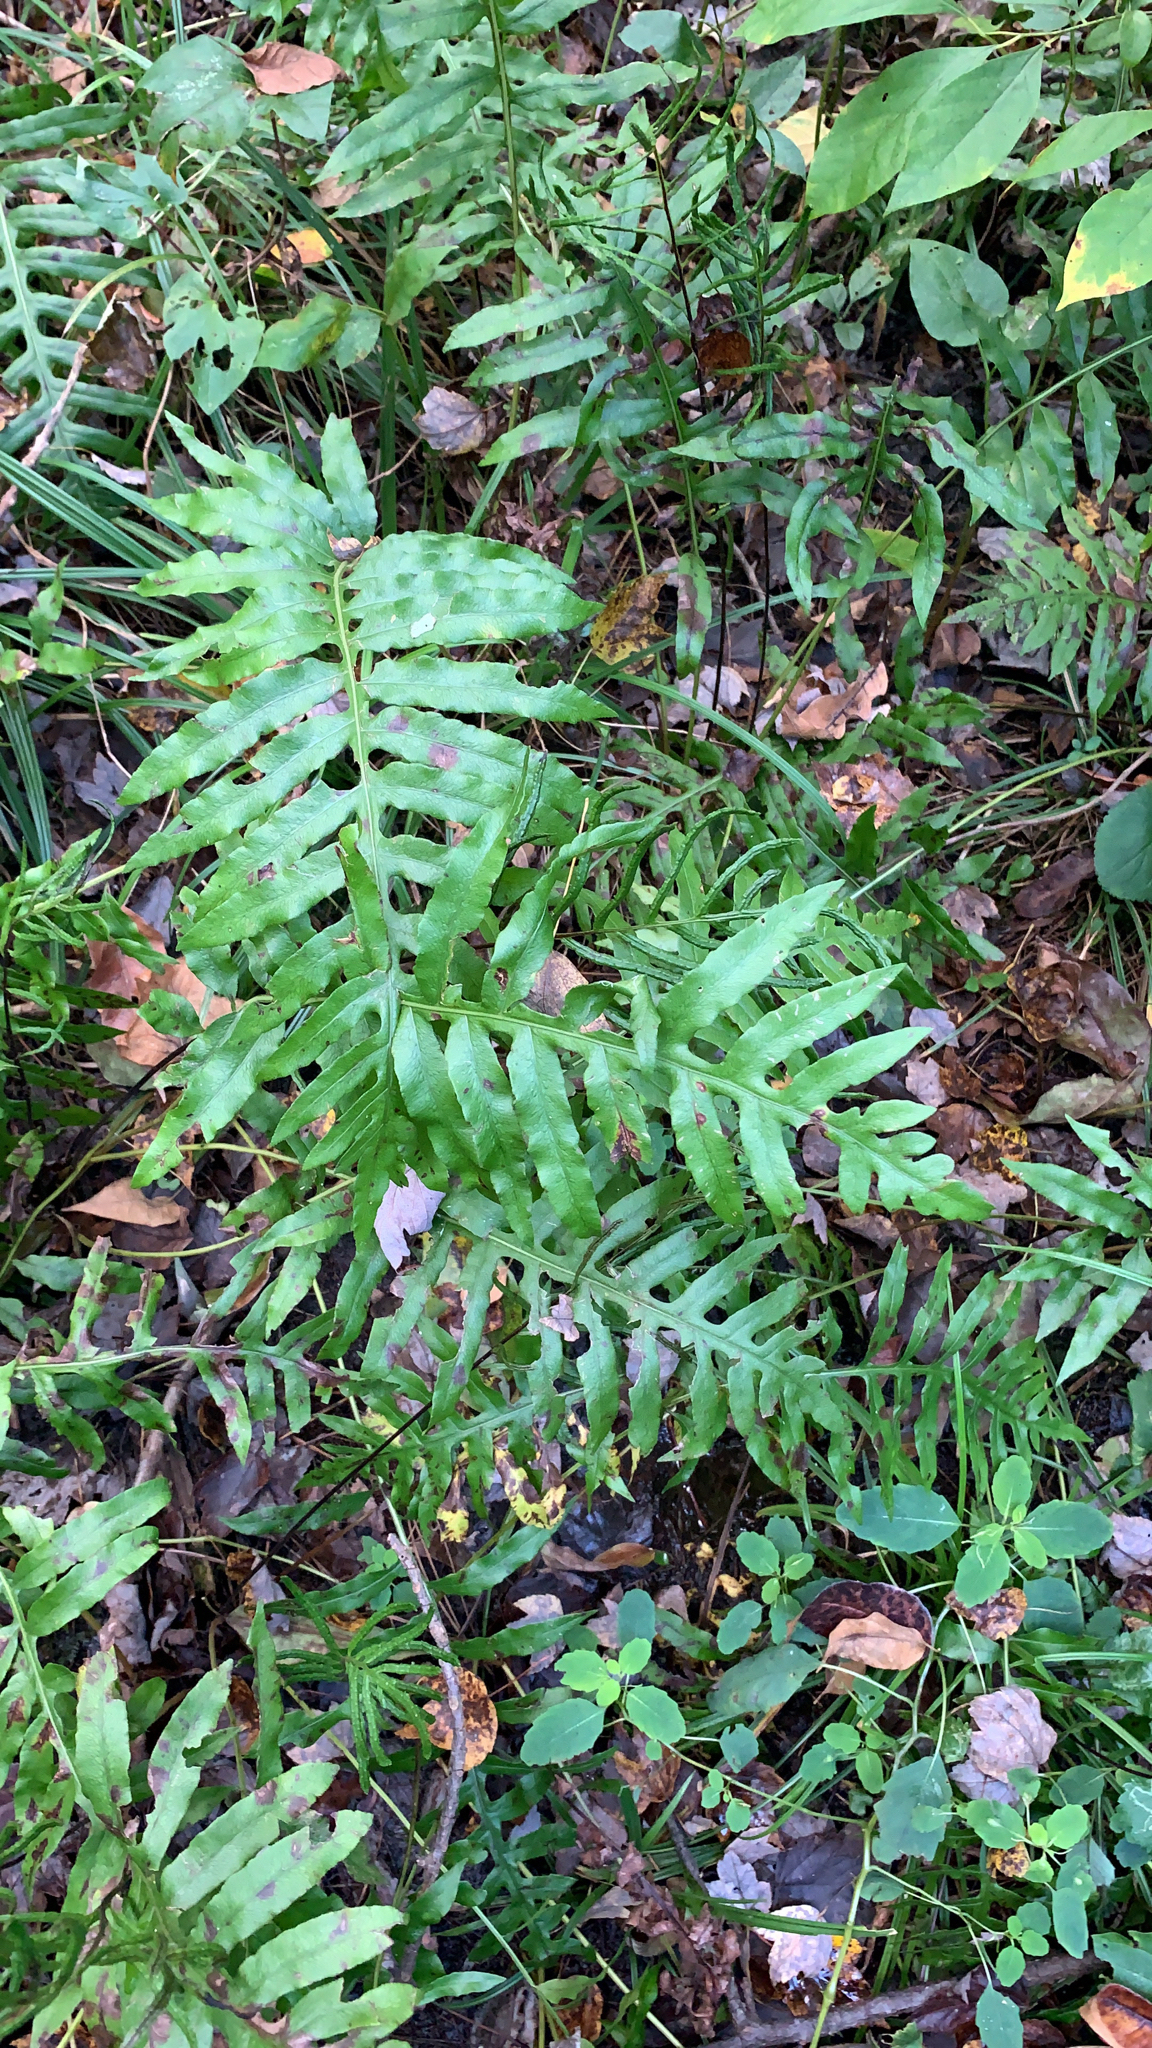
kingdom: Plantae
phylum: Tracheophyta
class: Polypodiopsida
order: Polypodiales
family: Blechnaceae
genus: Lorinseria
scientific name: Lorinseria areolata
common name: Dwarf chain fern
